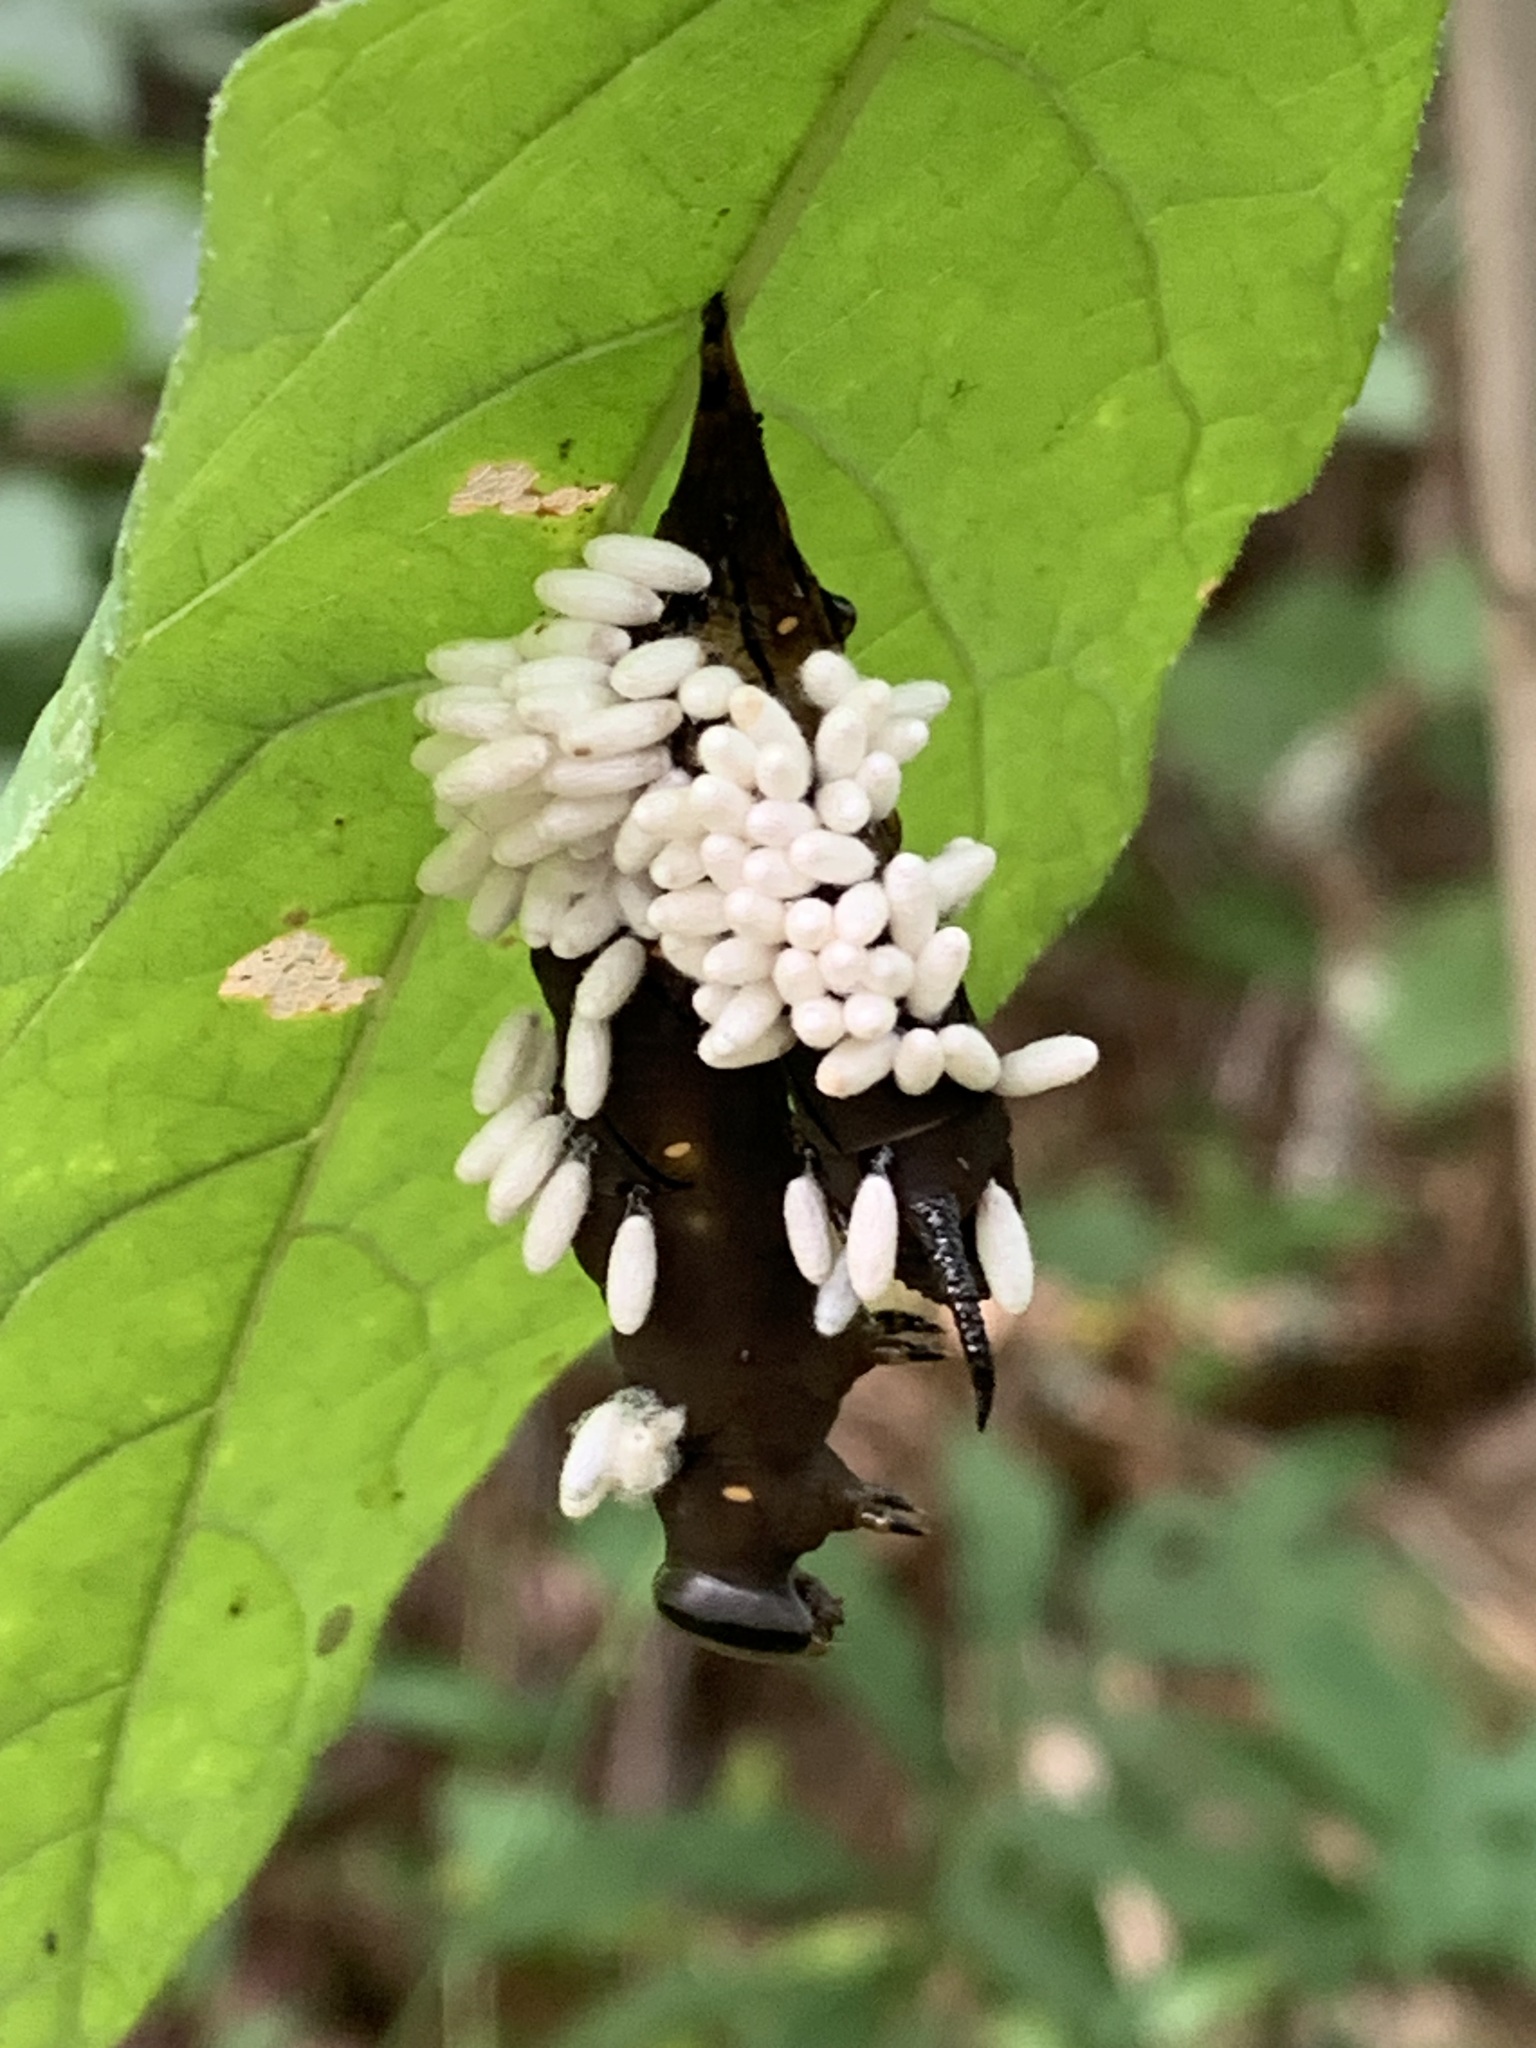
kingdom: Animalia
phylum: Arthropoda
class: Insecta
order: Hymenoptera
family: Braconidae
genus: Cotesia
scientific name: Cotesia congregata
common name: Hornworm parasitoid wasp
